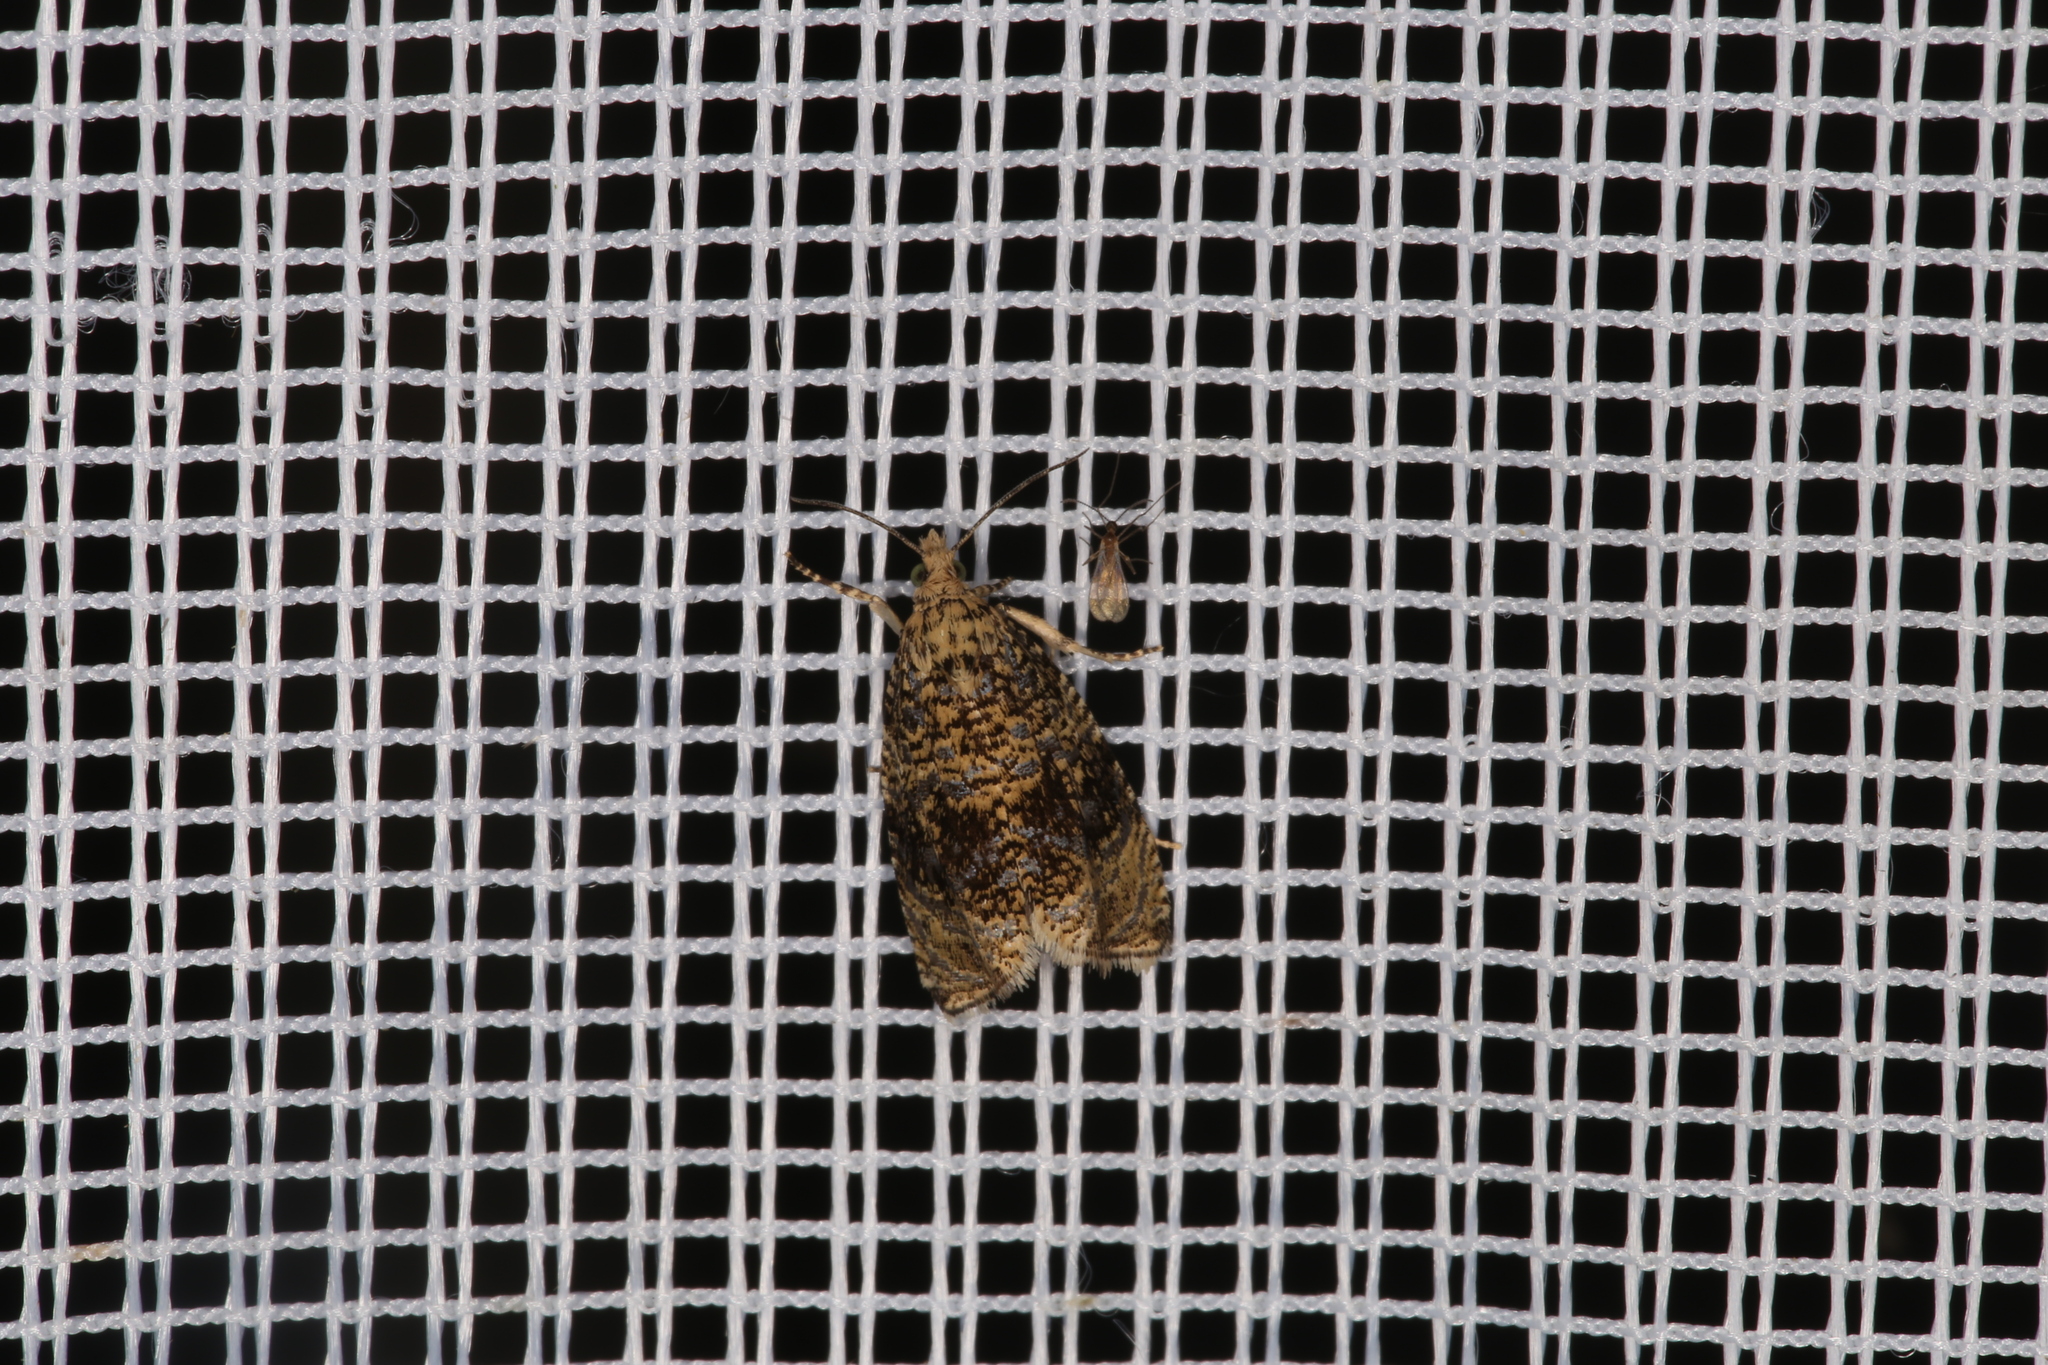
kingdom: Animalia
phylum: Arthropoda
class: Insecta
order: Lepidoptera
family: Tortricidae
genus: Syricoris
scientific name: Syricoris lacunana
